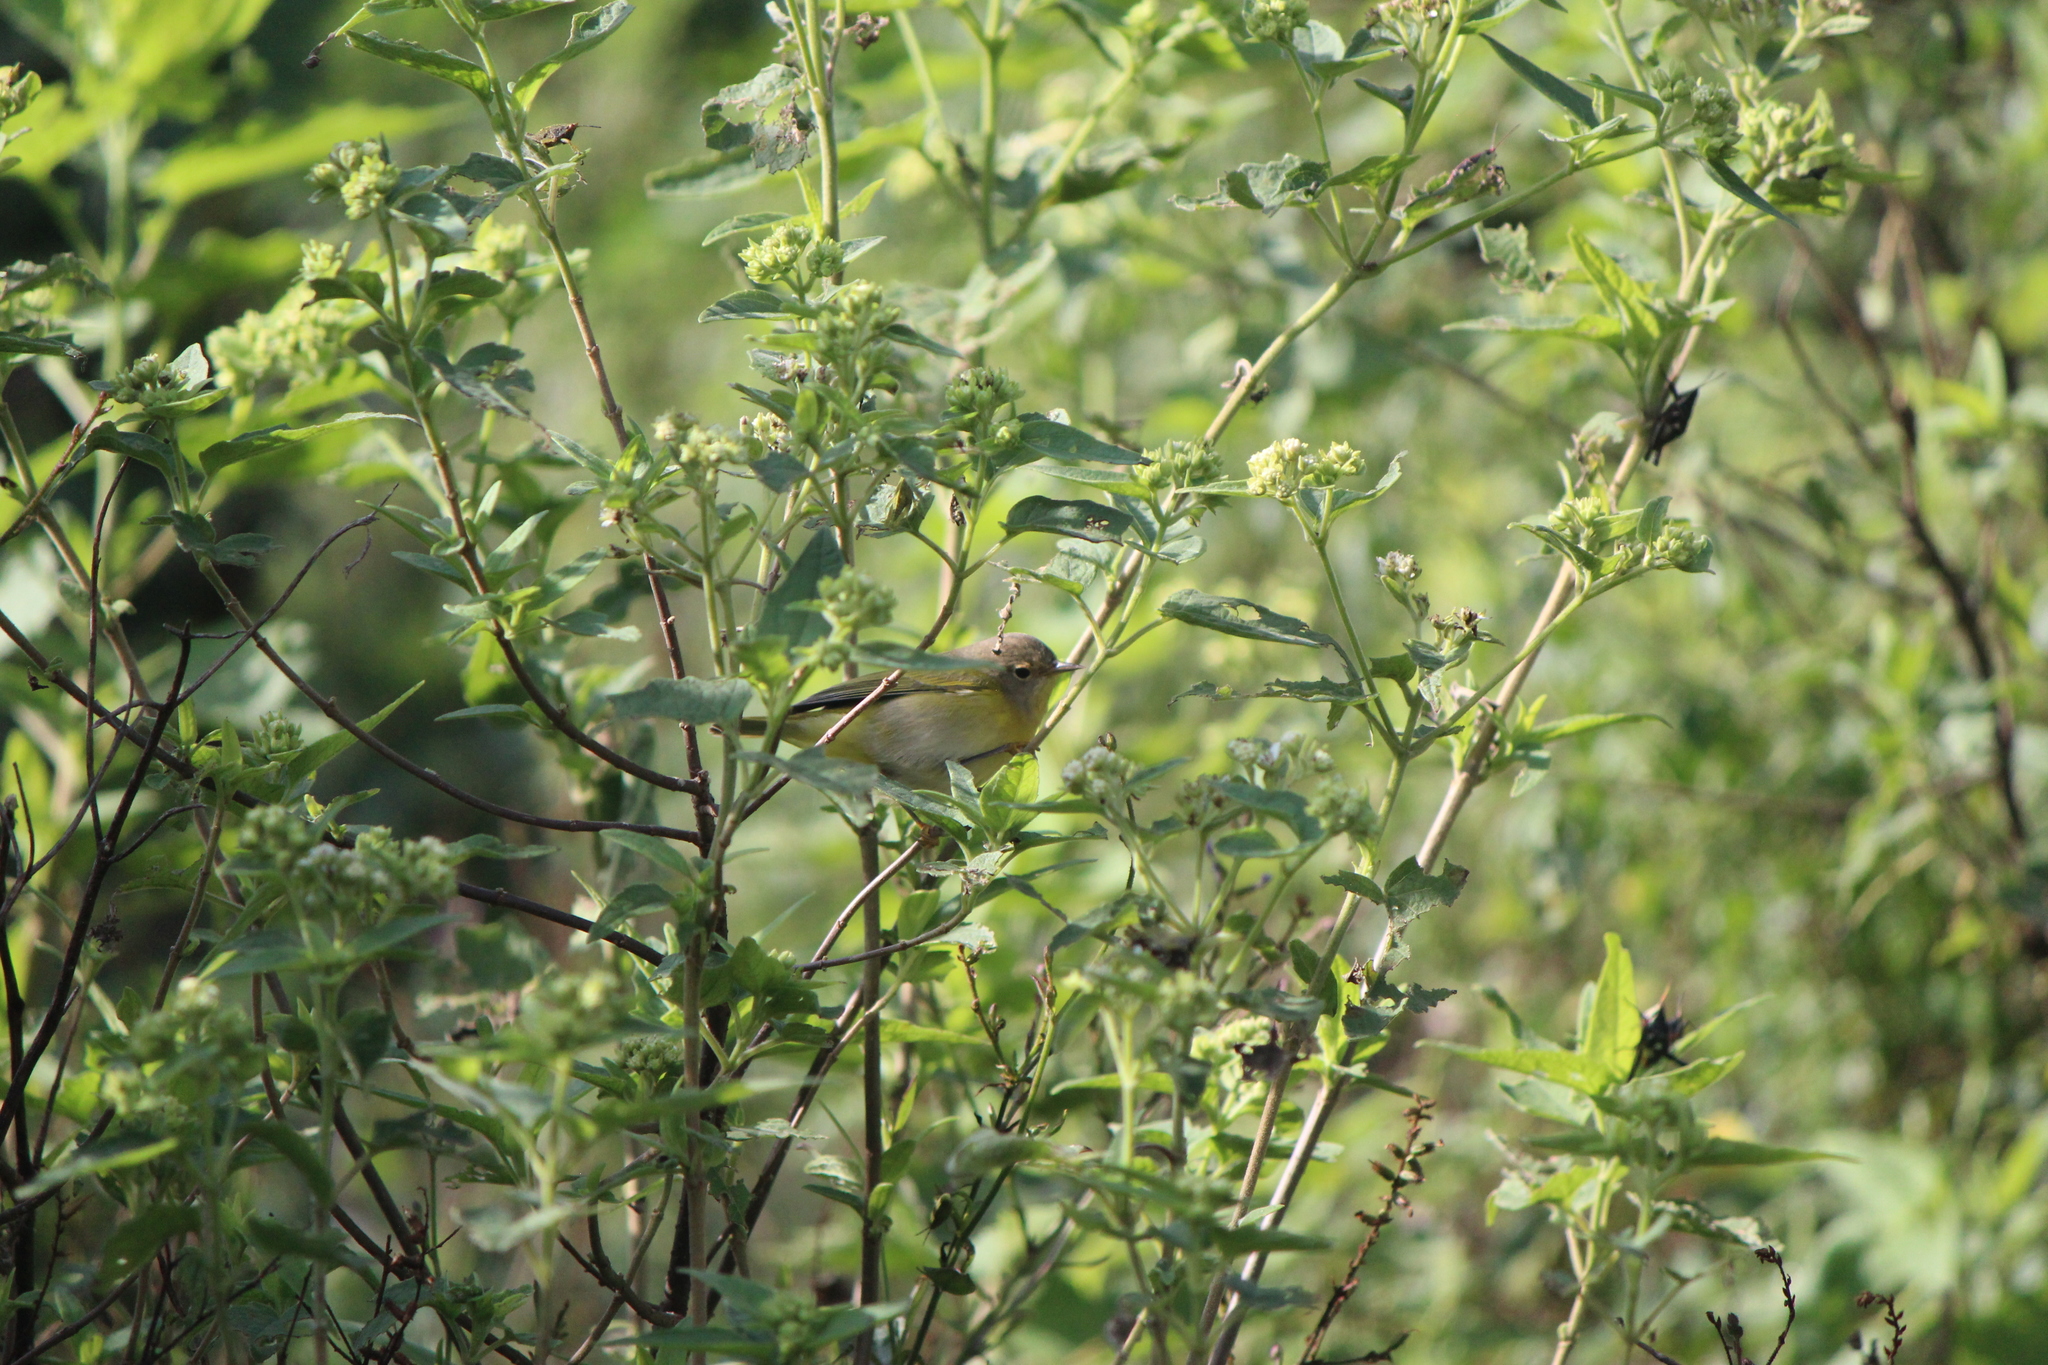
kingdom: Animalia
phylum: Chordata
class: Aves
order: Passeriformes
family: Parulidae
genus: Leiothlypis
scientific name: Leiothlypis ruficapilla
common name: Nashville warbler
